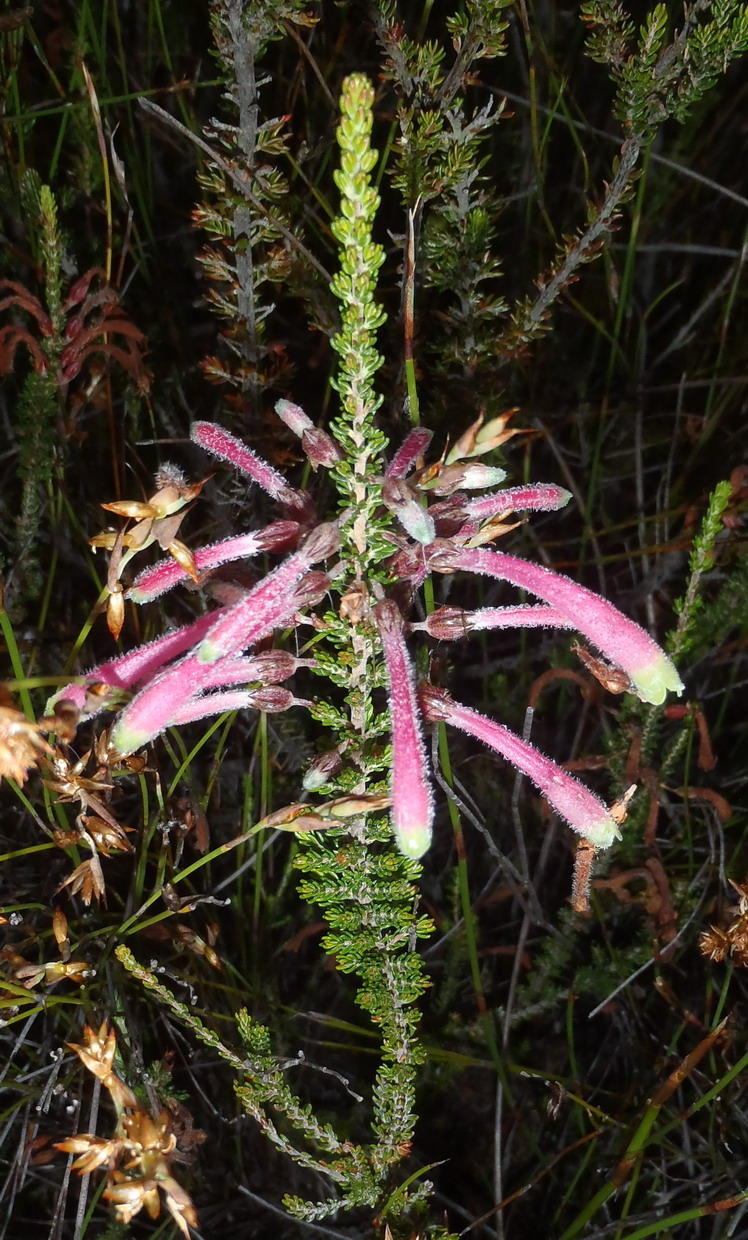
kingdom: Plantae
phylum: Tracheophyta
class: Magnoliopsida
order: Ericales
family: Ericaceae
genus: Erica
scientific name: Erica densifolia
